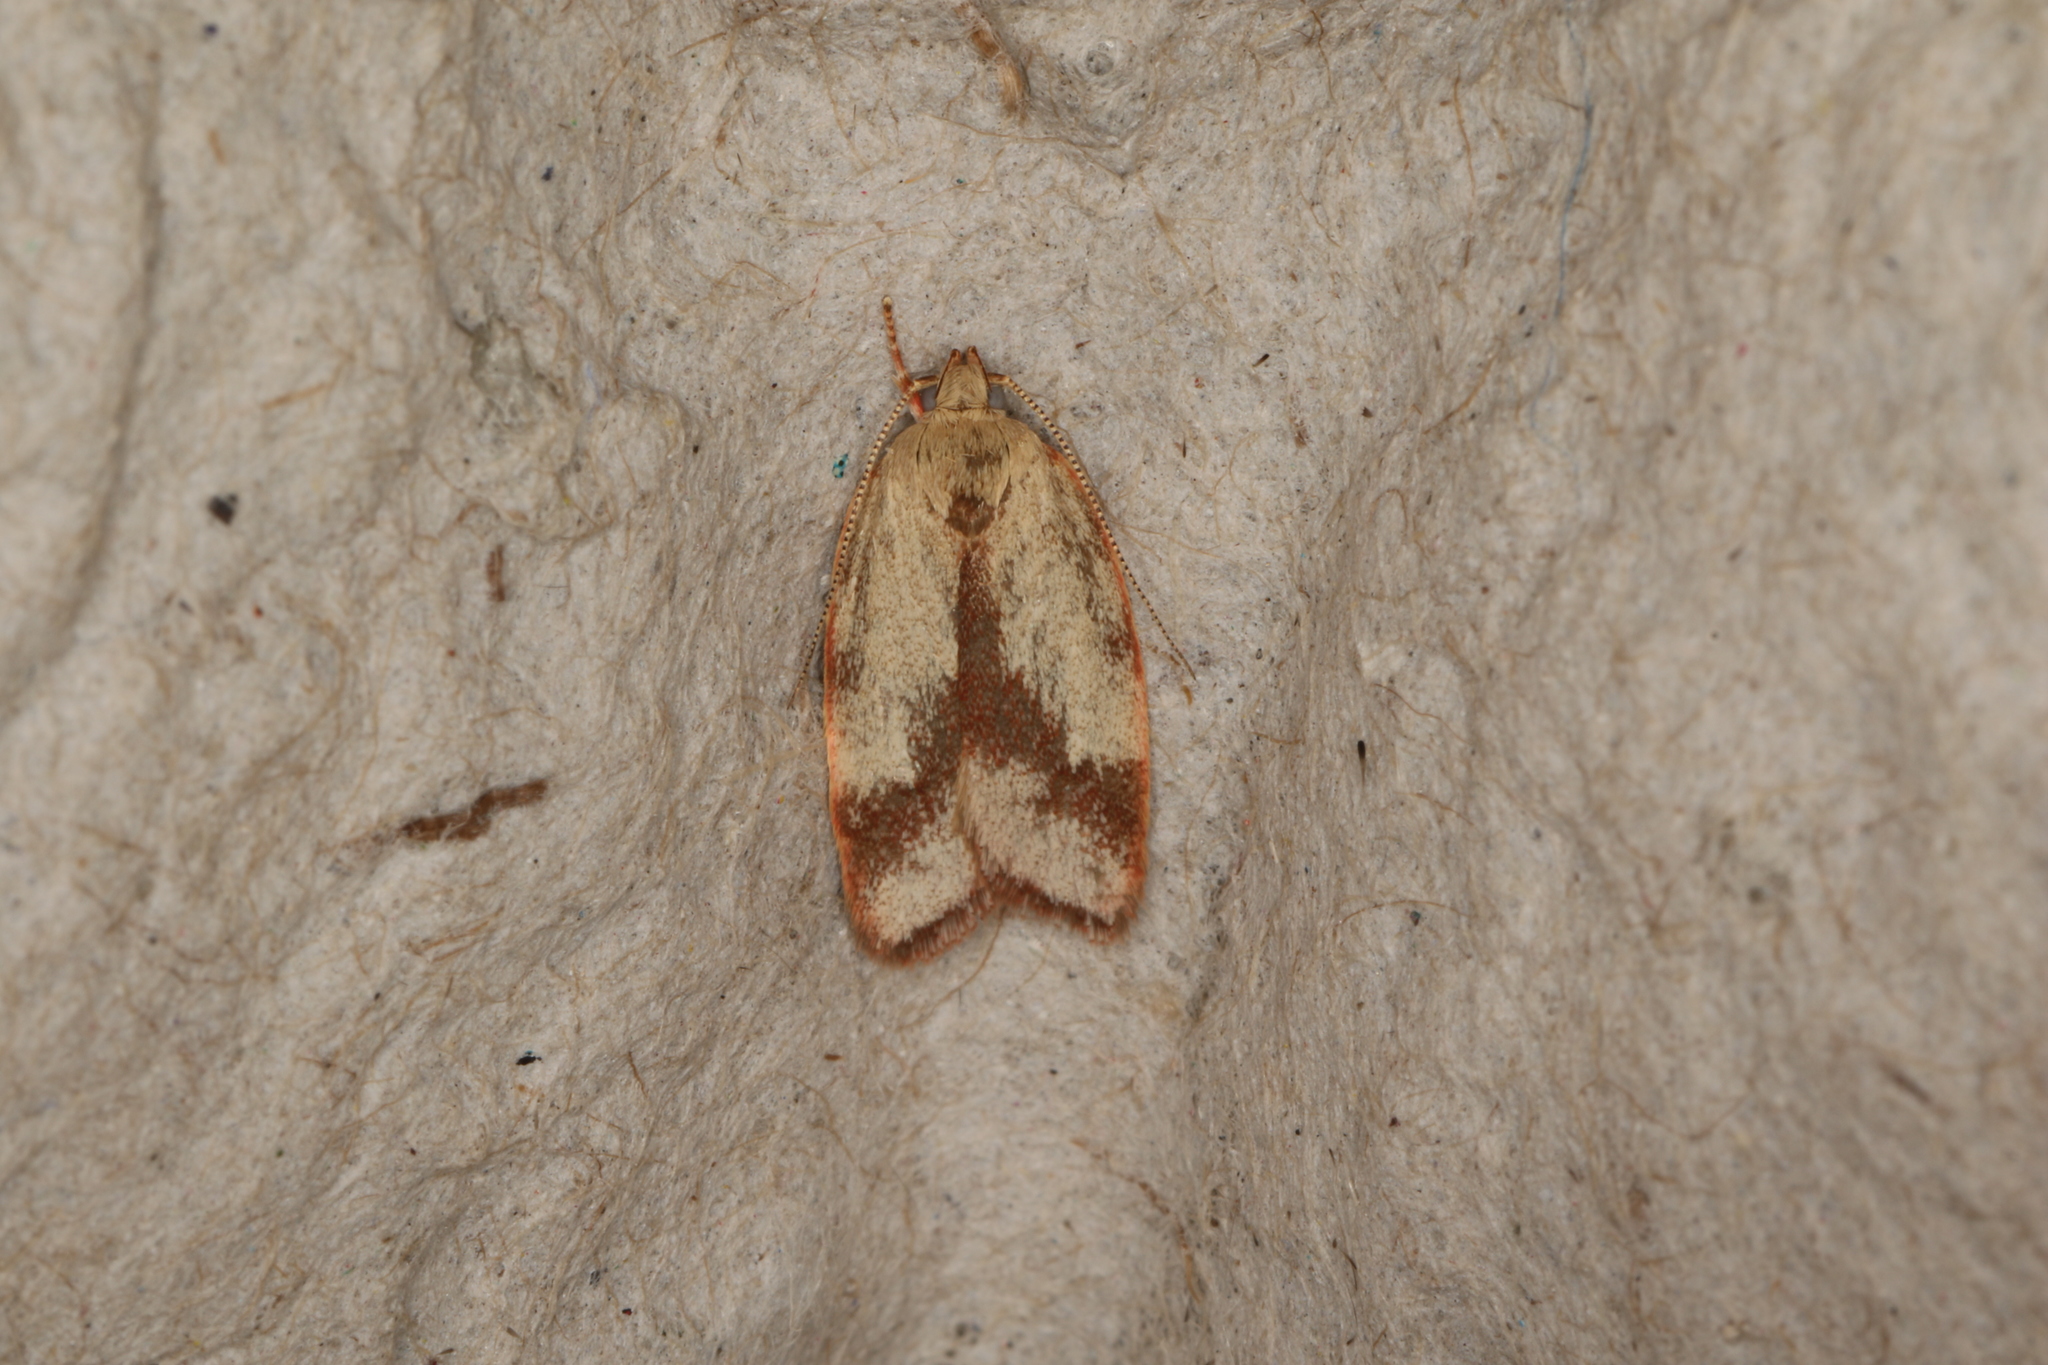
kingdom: Animalia
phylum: Arthropoda
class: Insecta
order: Lepidoptera
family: Oecophoridae
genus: Garrha
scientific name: Garrha phoenopis
